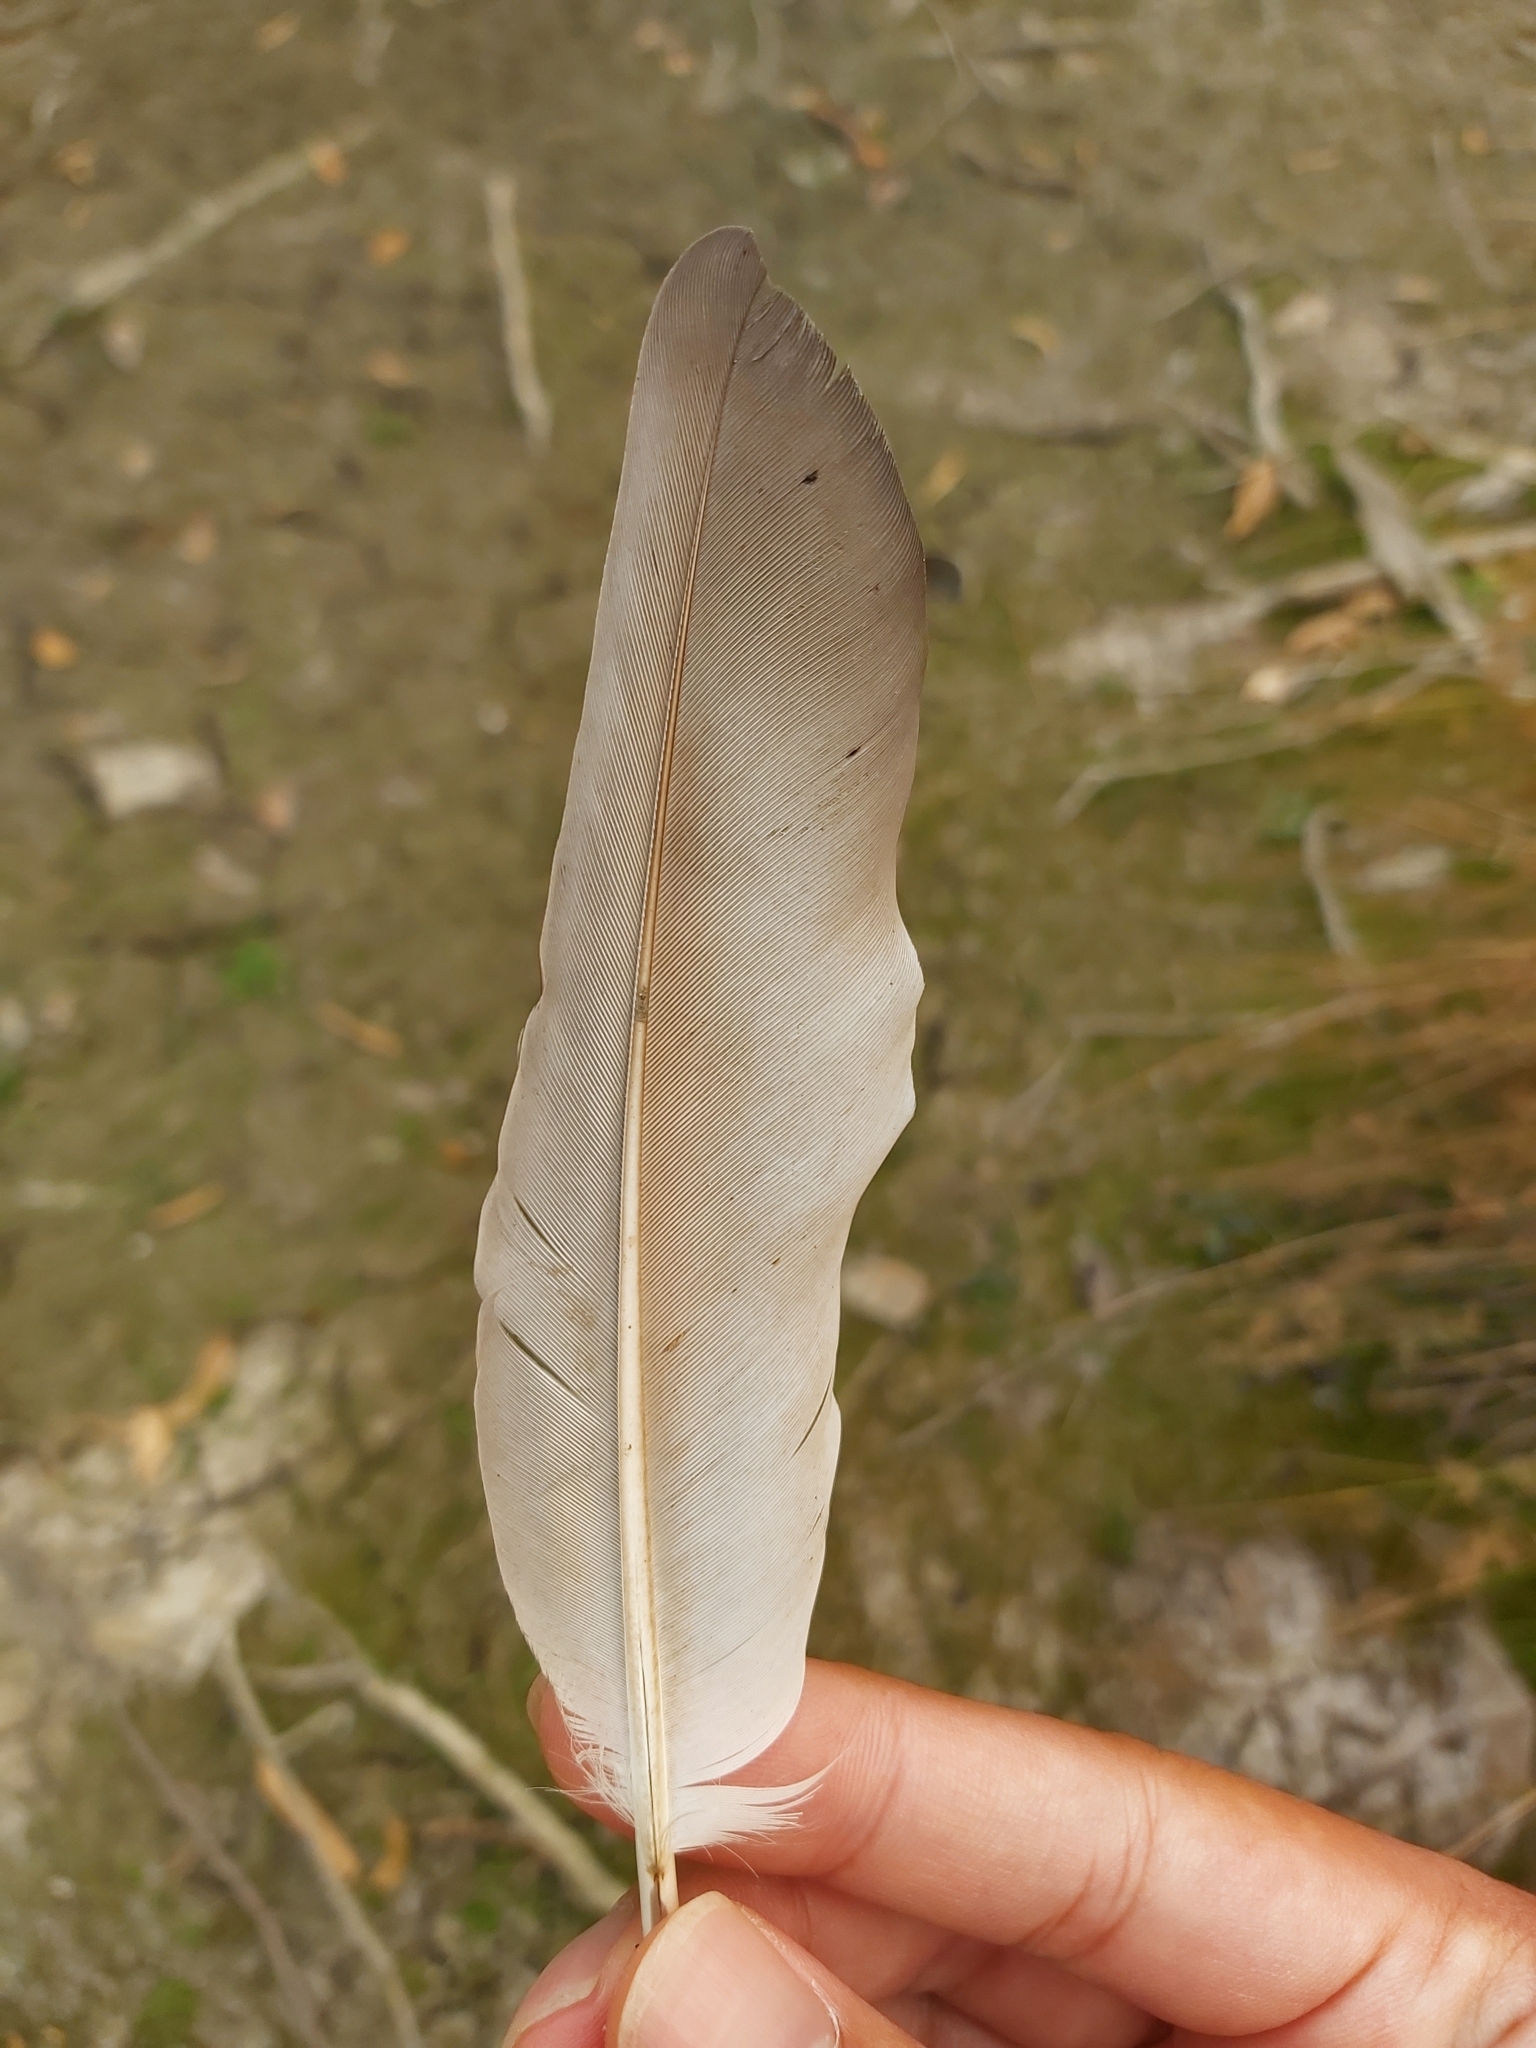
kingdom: Animalia
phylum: Chordata
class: Aves
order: Columbiformes
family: Columbidae
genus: Columba
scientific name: Columba livia
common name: Rock pigeon
